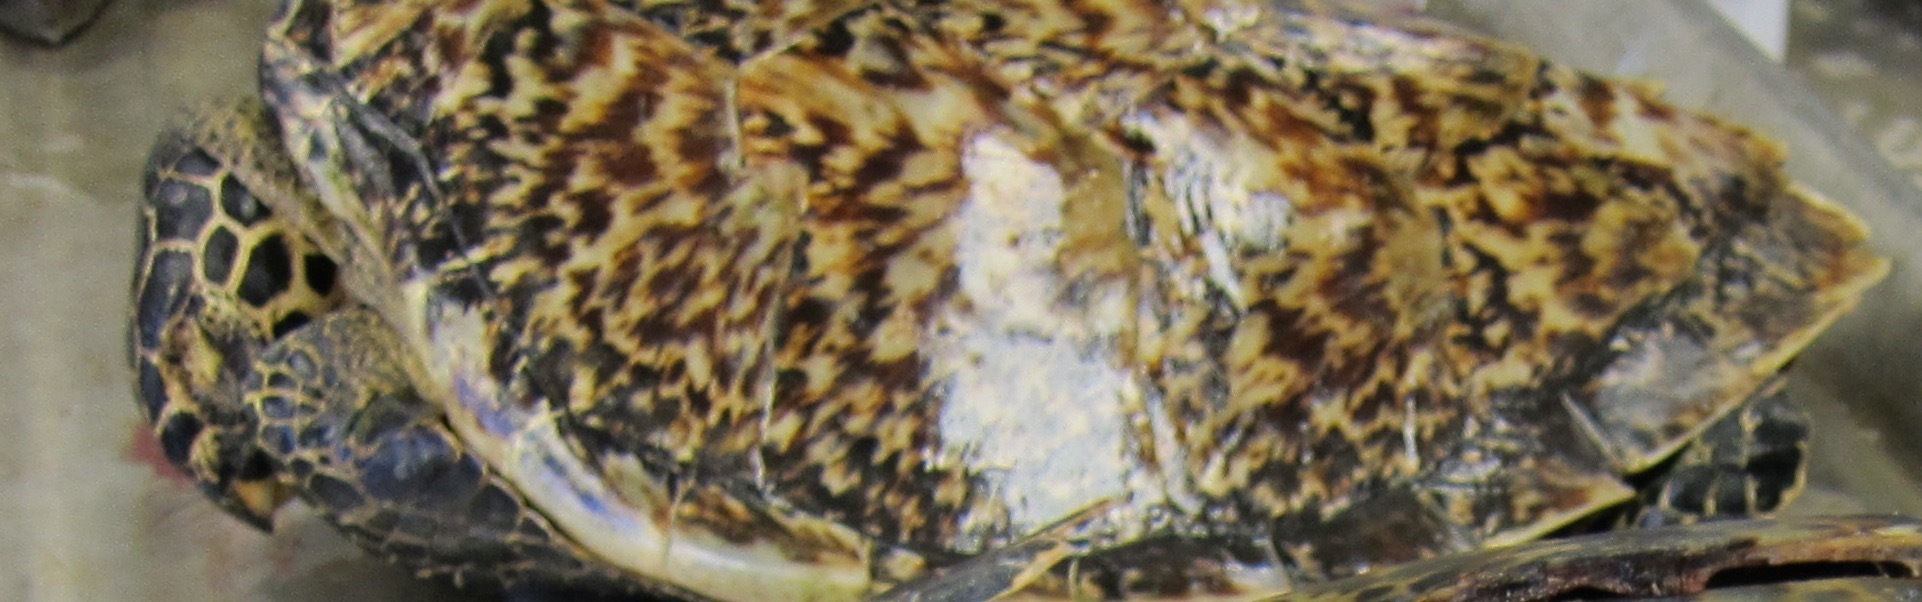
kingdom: Animalia
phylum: Chordata
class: Testudines
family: Cheloniidae
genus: Eretmochelys
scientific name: Eretmochelys imbricata
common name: Hawksbill turtle
